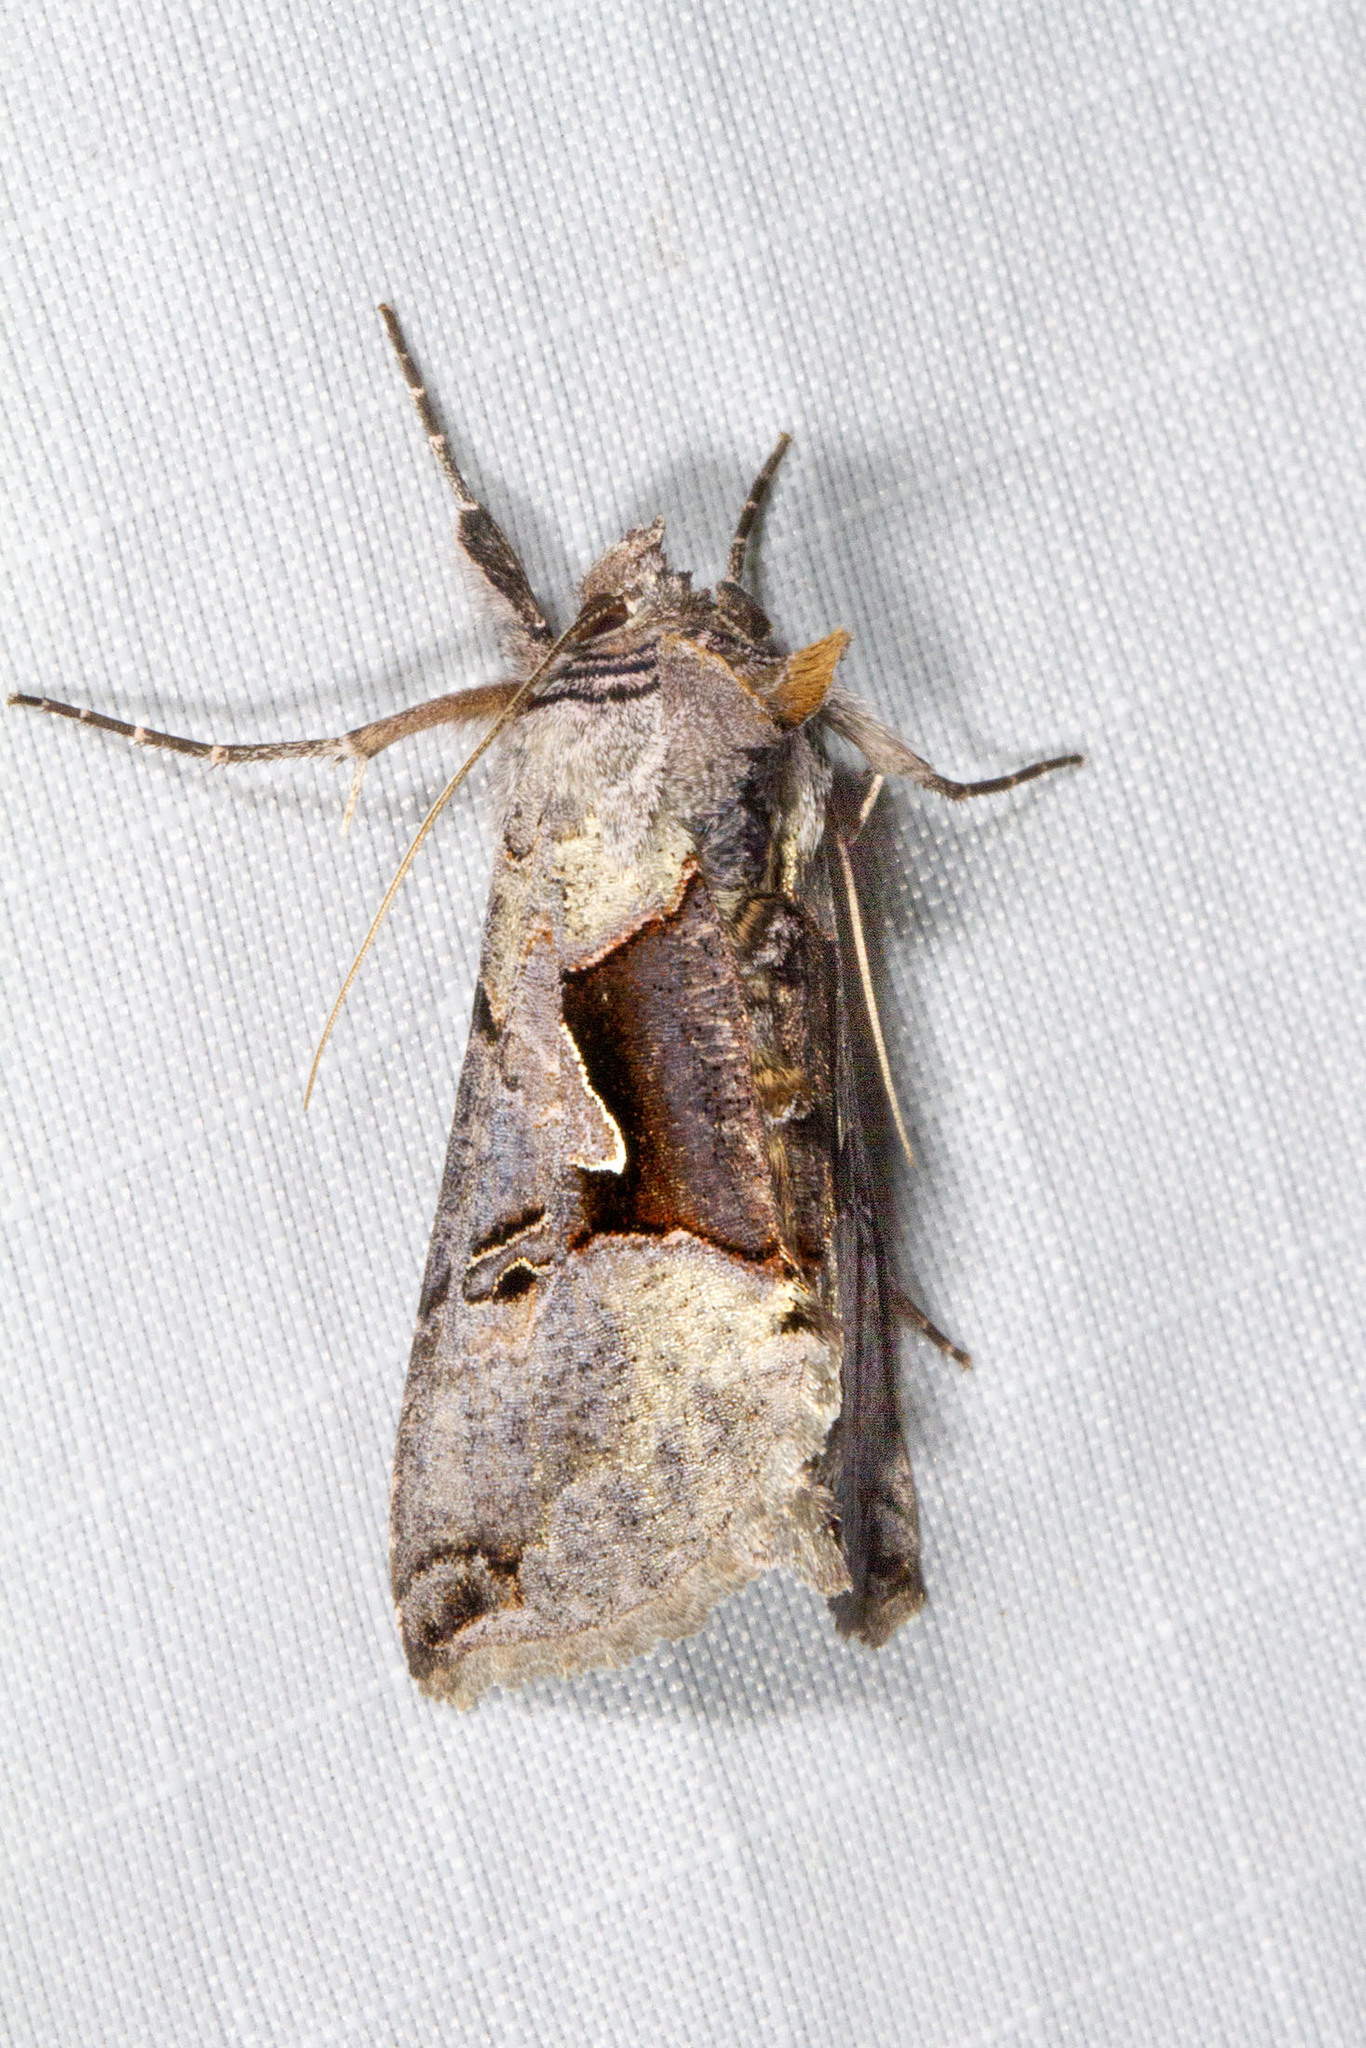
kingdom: Animalia
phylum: Arthropoda
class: Insecta
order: Lepidoptera
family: Noctuidae
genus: Autographa
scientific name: Autographa ampla
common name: Large looper moth
